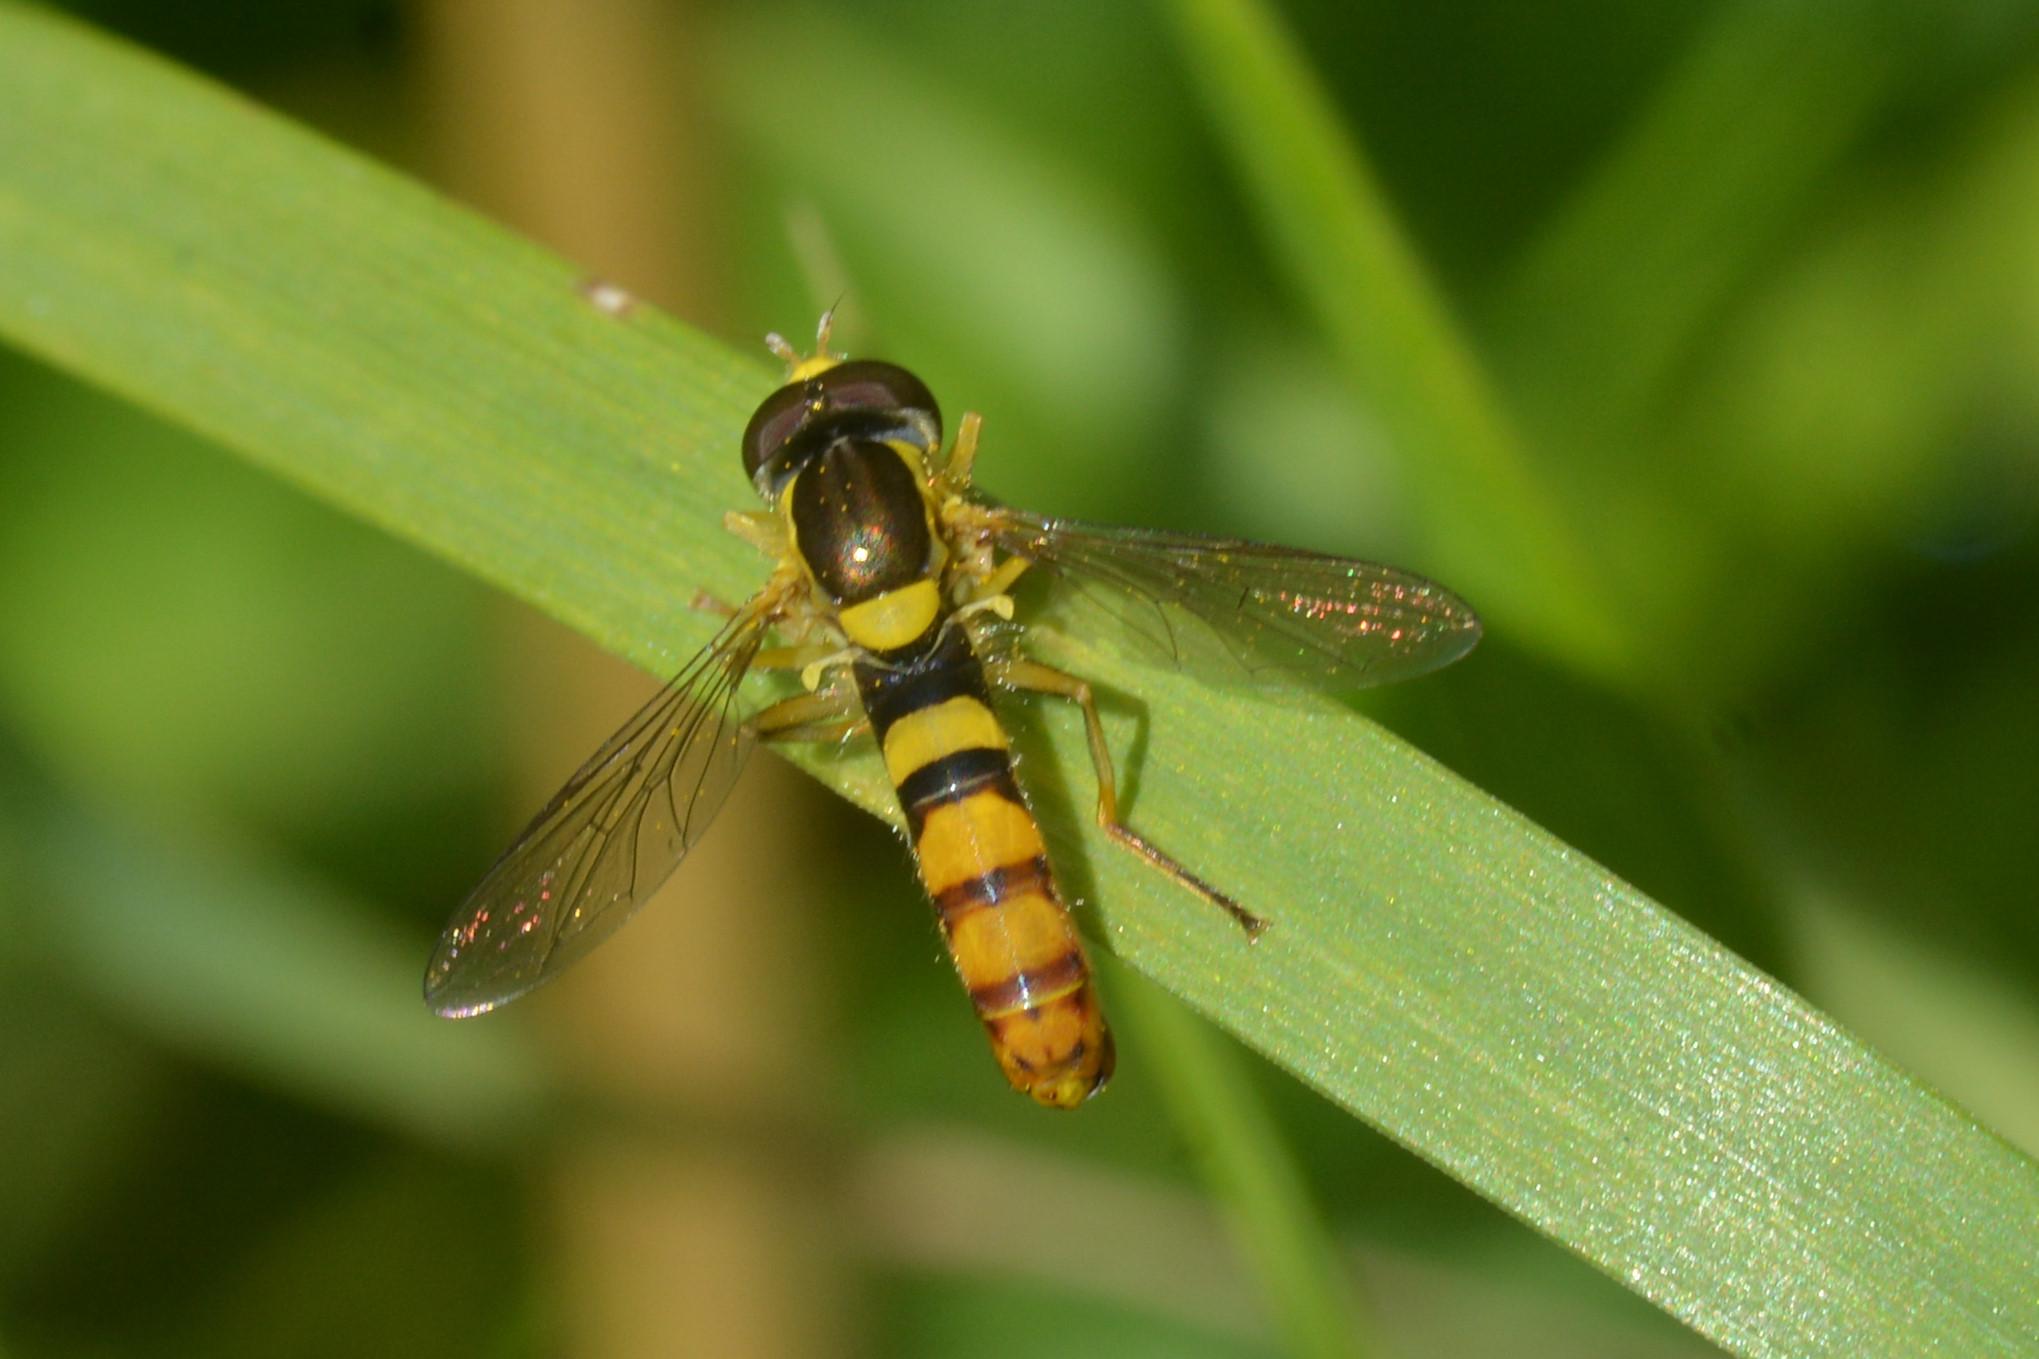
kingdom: Animalia
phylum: Arthropoda
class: Insecta
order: Diptera
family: Syrphidae
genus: Sphaerophoria
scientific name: Sphaerophoria
